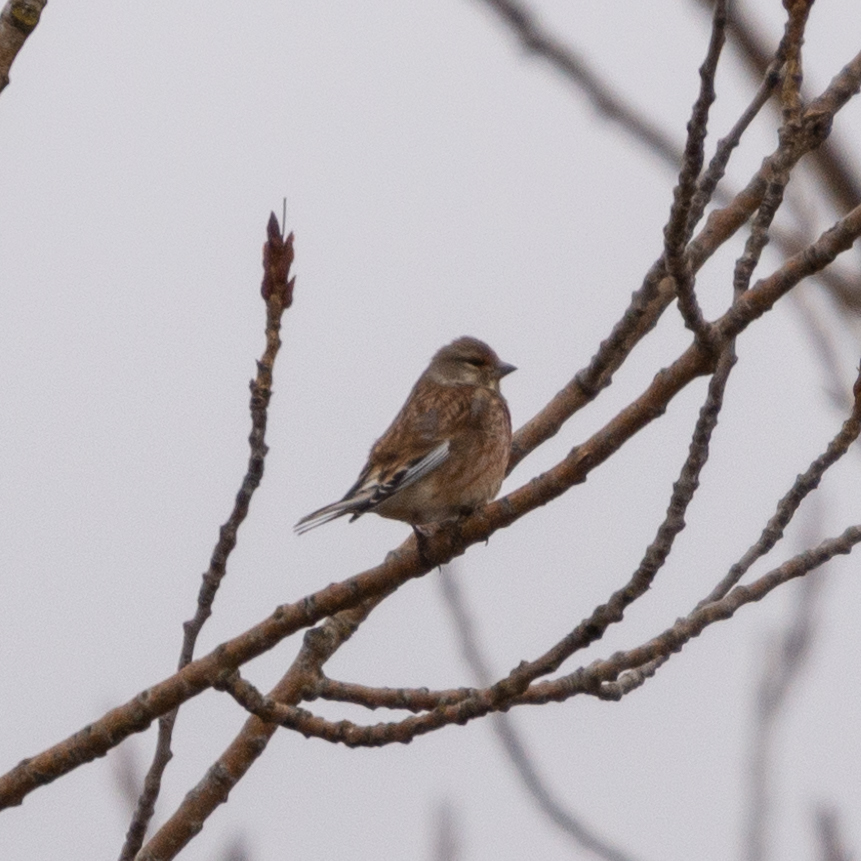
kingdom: Animalia
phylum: Chordata
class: Aves
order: Passeriformes
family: Fringillidae
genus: Linaria
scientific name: Linaria cannabina
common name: Common linnet
